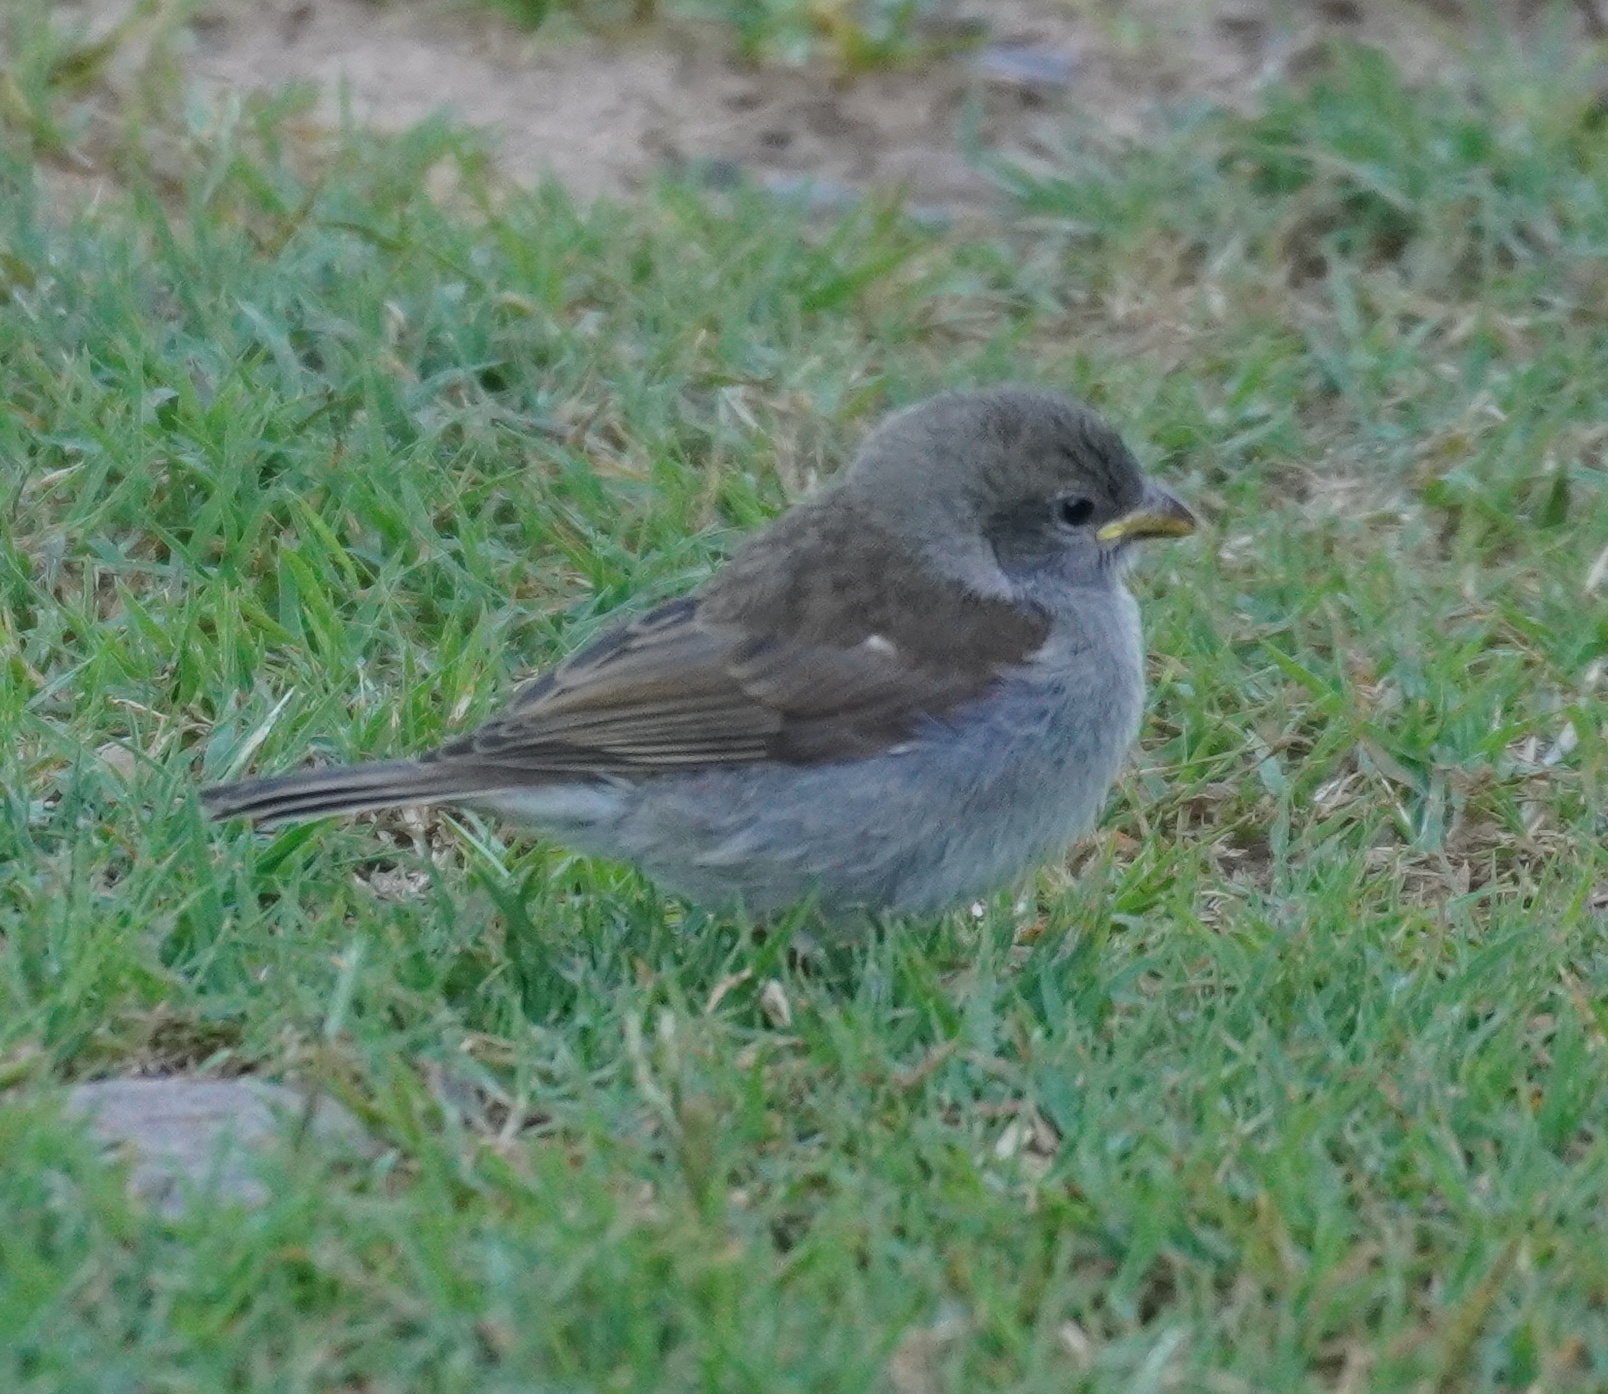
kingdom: Animalia
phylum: Chordata
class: Aves
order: Passeriformes
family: Passeridae
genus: Passer
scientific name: Passer diffusus
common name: Southern grey-headed sparrow
